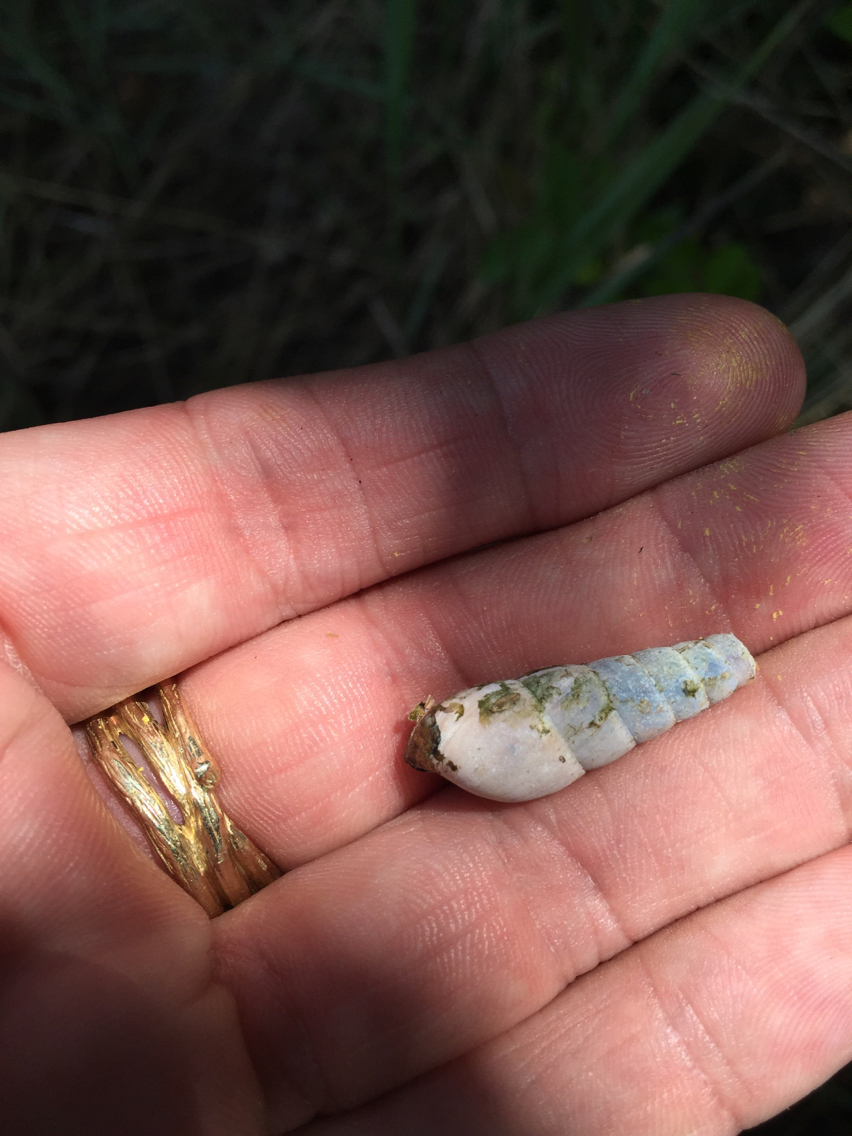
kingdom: Animalia
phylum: Mollusca
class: Gastropoda
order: Stylommatophora
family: Achatinidae
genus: Rumina
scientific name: Rumina decollata
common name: Decollate snail
